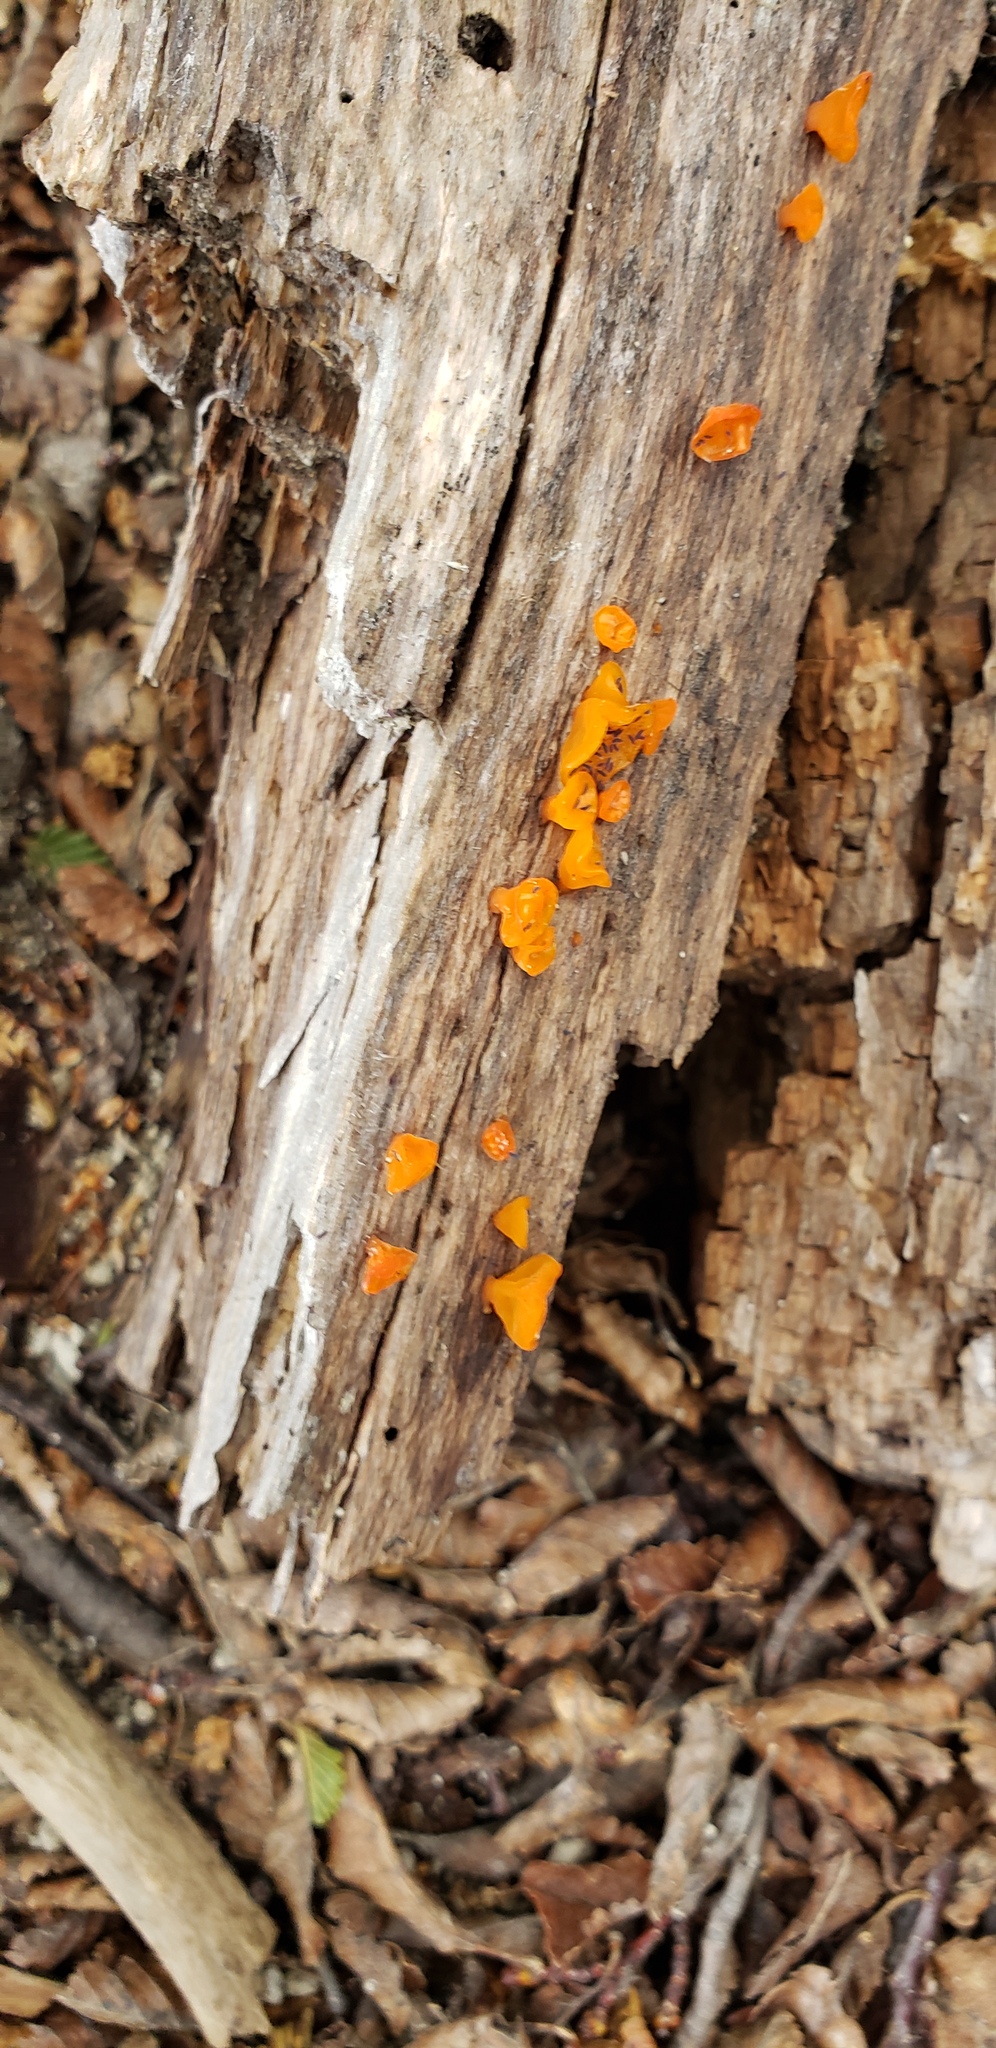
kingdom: Fungi
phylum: Basidiomycota
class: Dacrymycetes
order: Dacrymycetales
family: Dacrymycetaceae
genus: Guepiniopsis
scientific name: Guepiniopsis alpina
